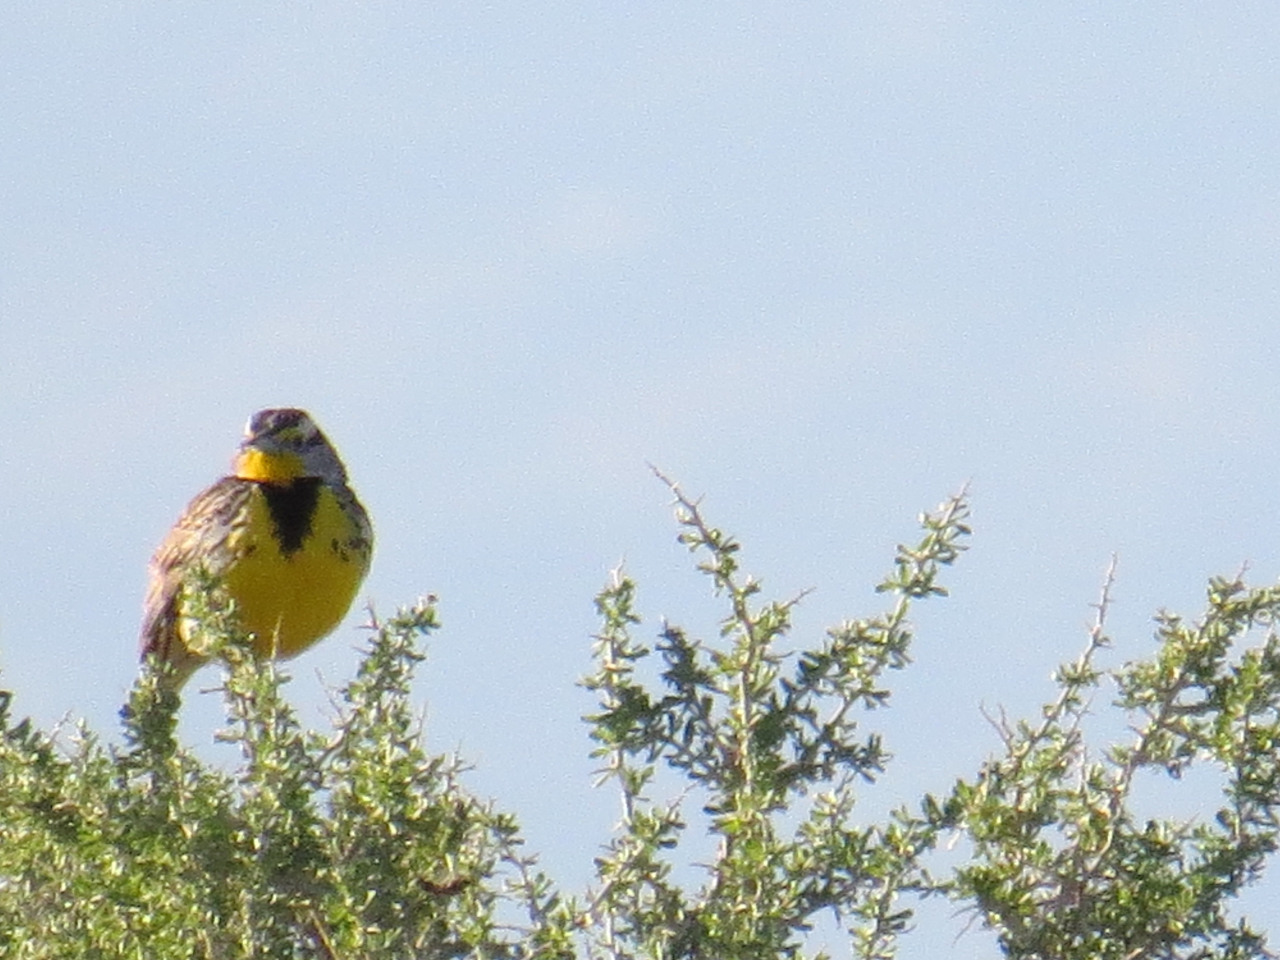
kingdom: Animalia
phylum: Chordata
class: Aves
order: Passeriformes
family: Icteridae
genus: Sturnella
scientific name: Sturnella neglecta
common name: Western meadowlark
